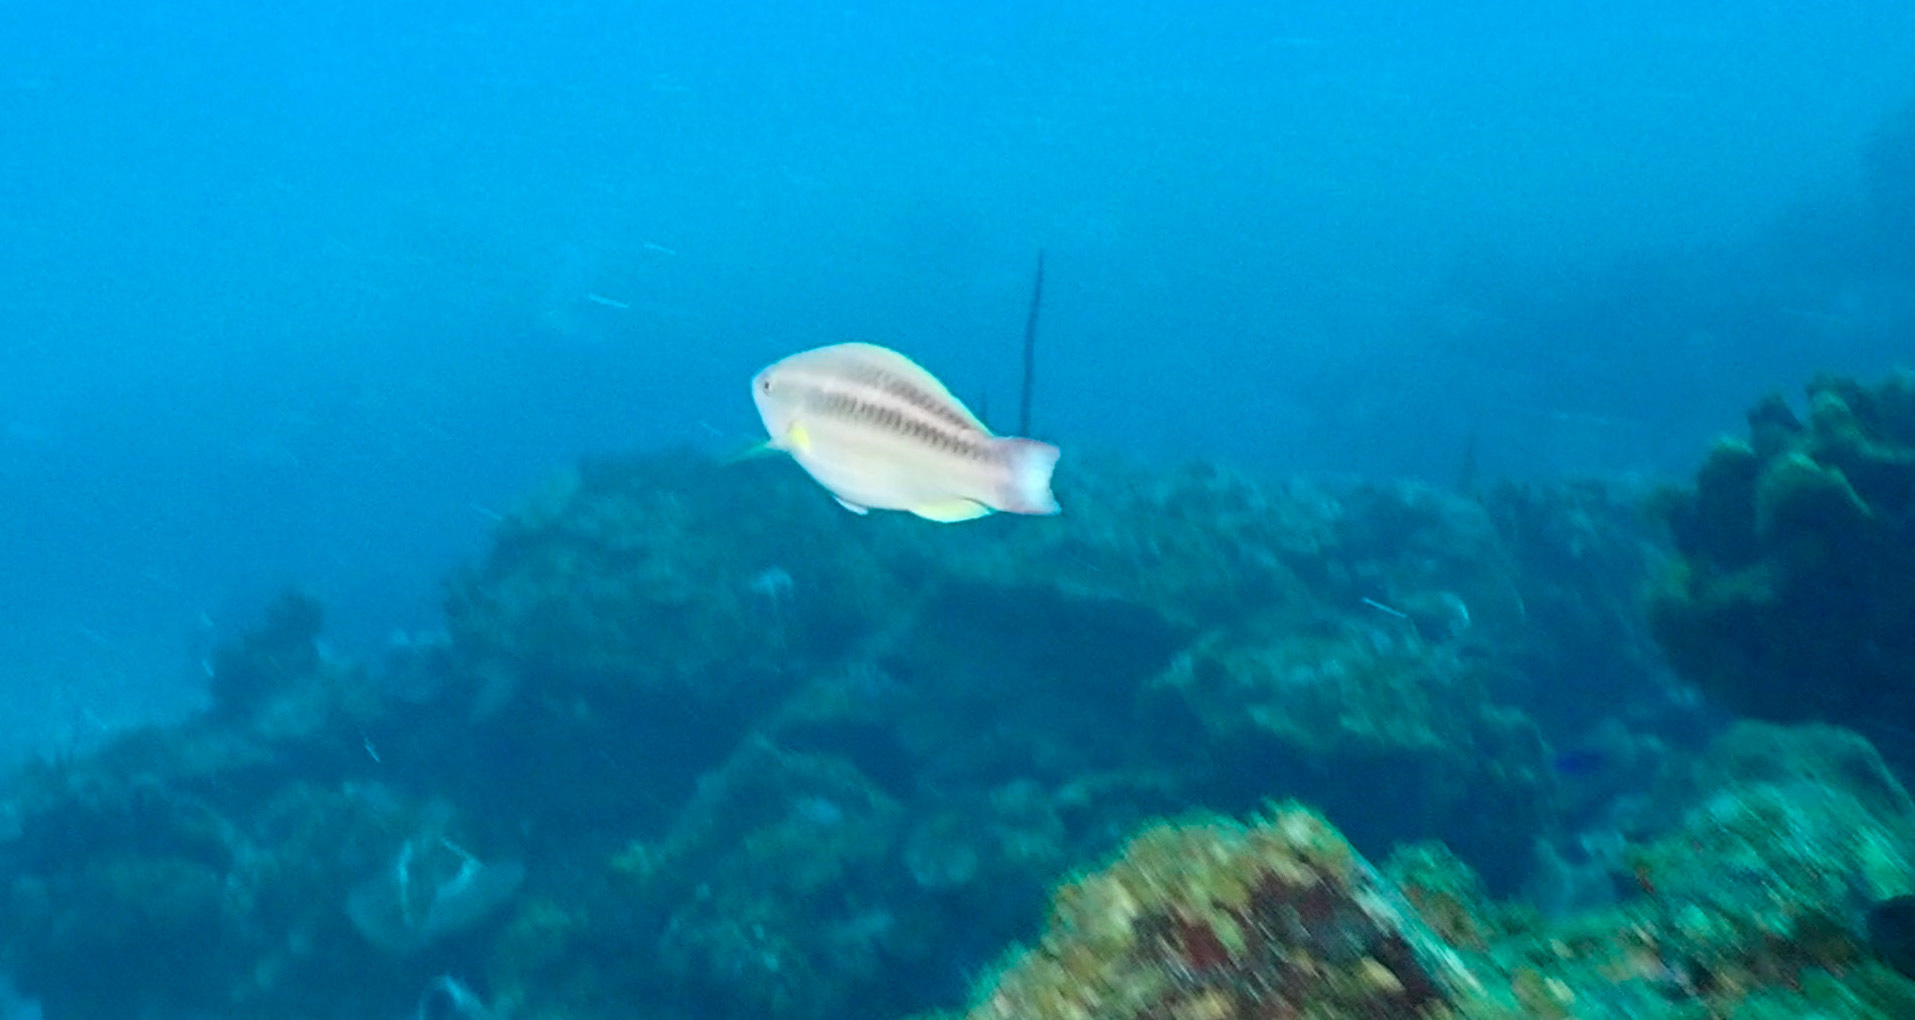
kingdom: Animalia
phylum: Chordata
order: Perciformes
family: Scaridae
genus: Scarus
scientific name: Scarus iseri
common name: Striped parrotfish
